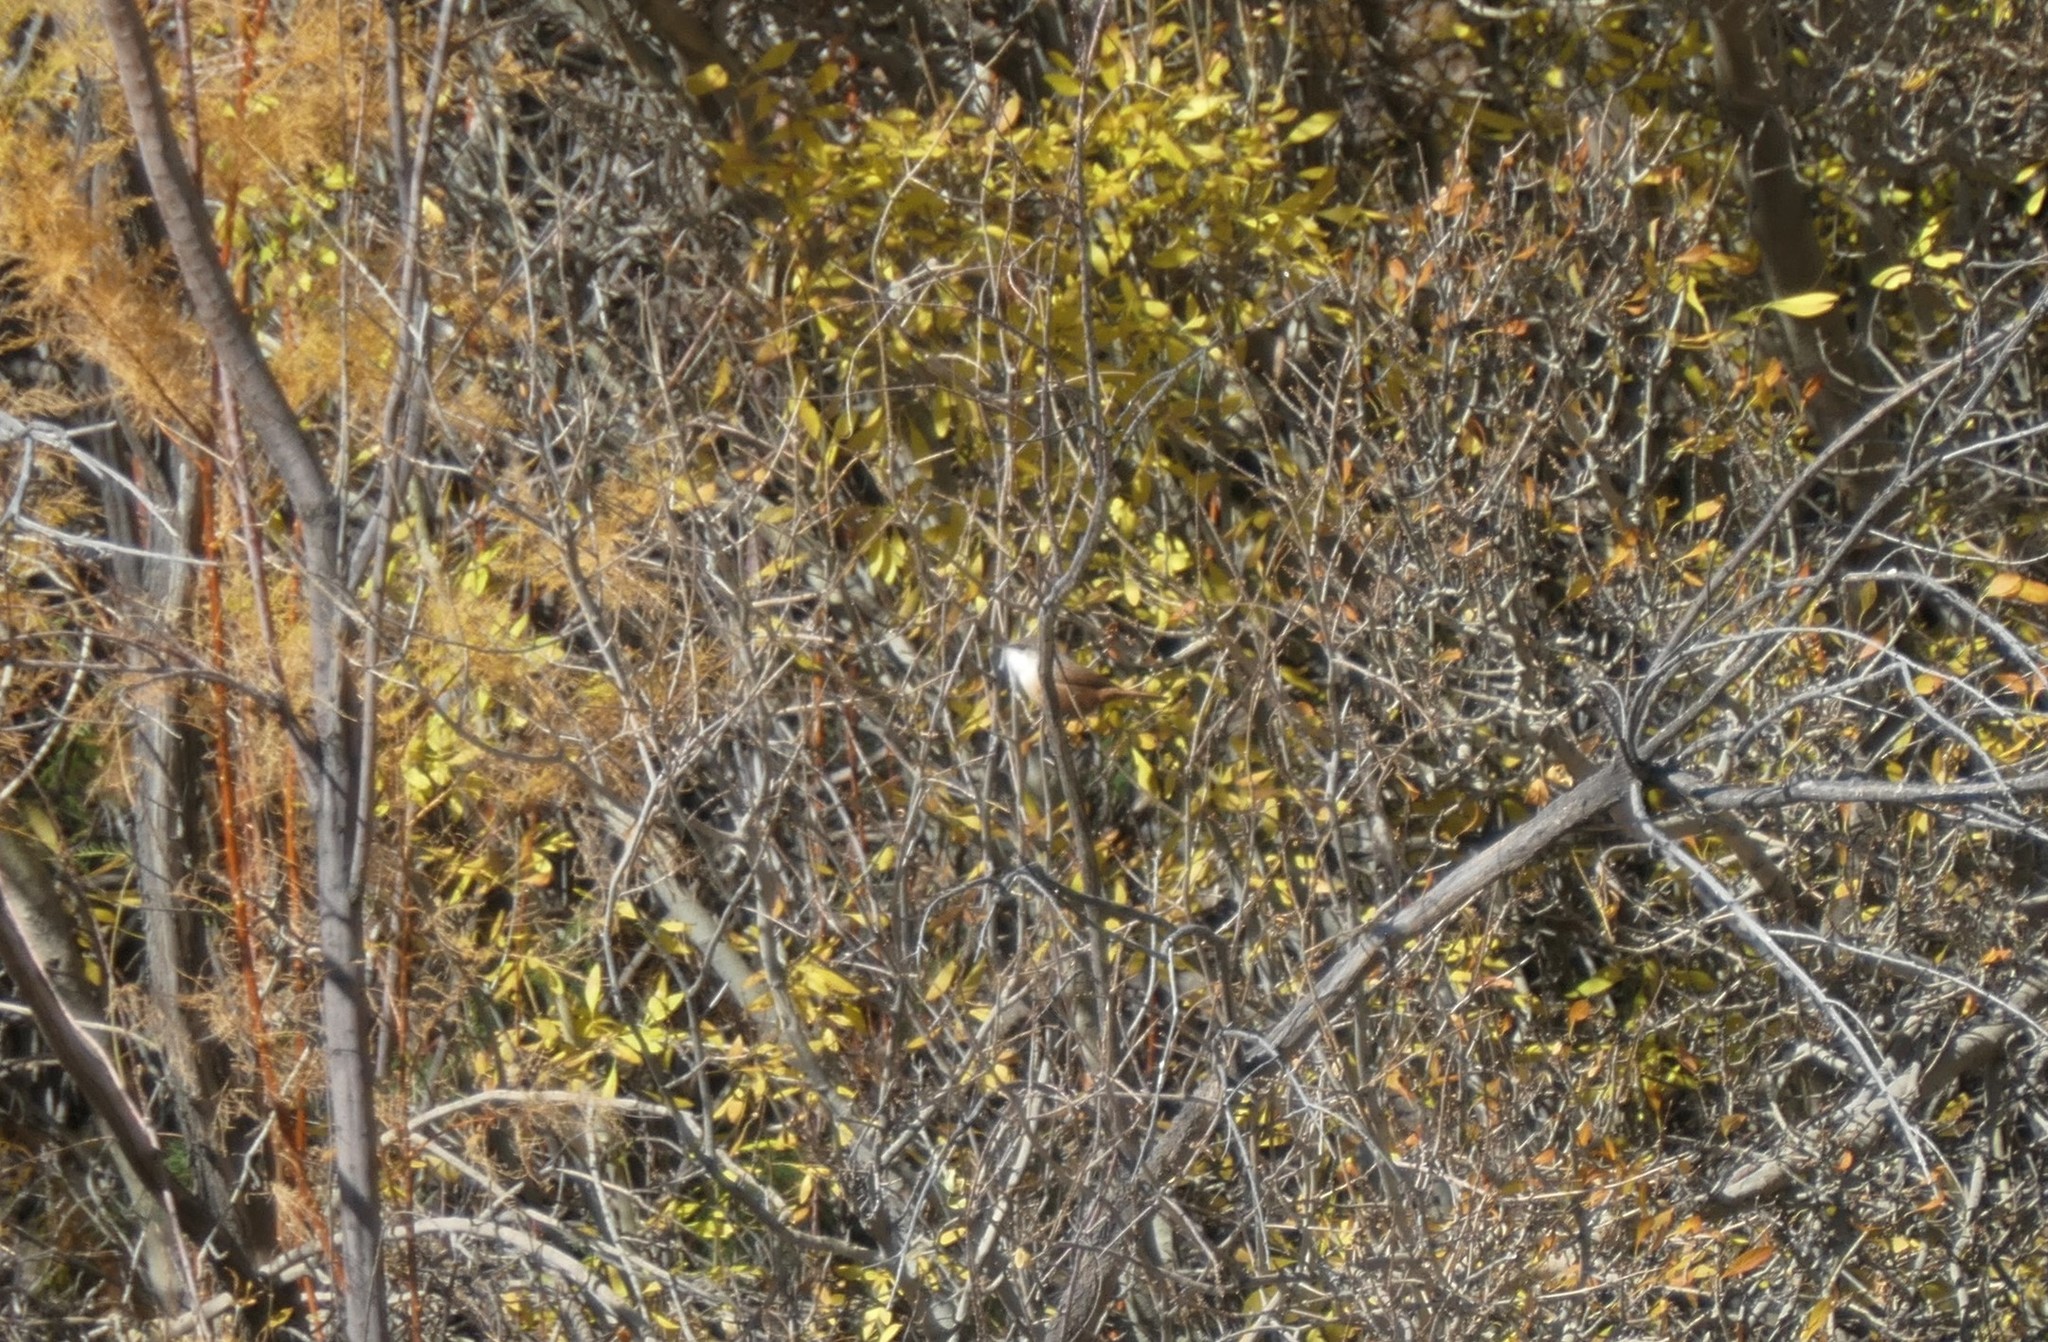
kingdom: Animalia
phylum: Chordata
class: Aves
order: Passeriformes
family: Troglodytidae
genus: Catherpes
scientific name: Catherpes mexicanus
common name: Canyon wren
